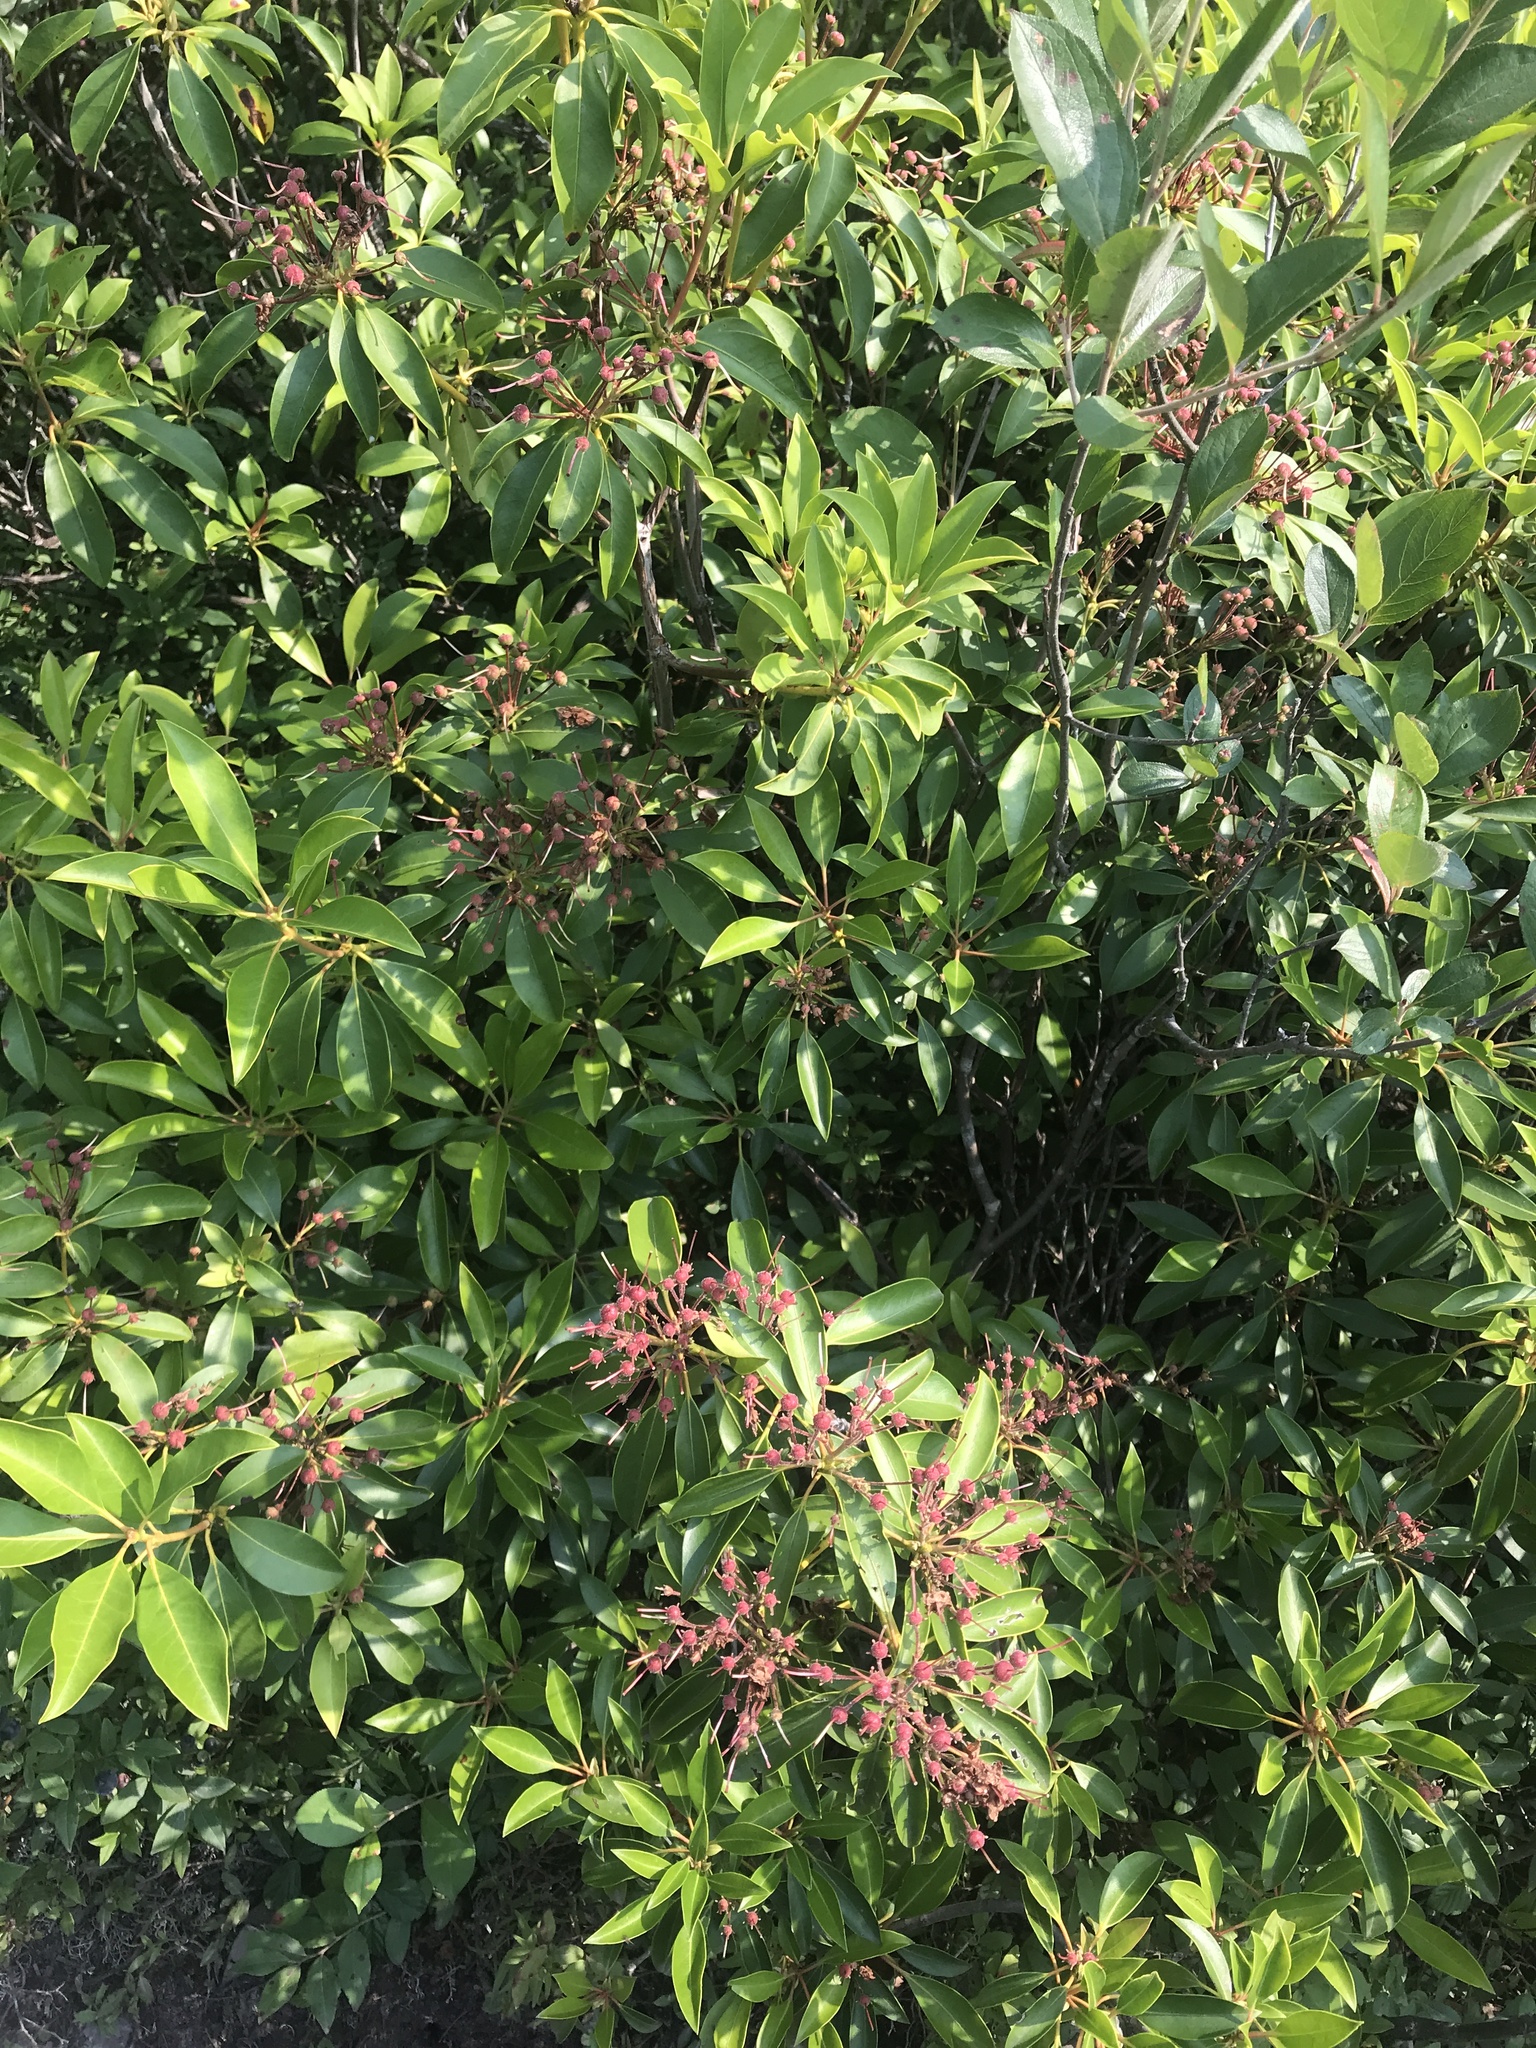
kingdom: Plantae
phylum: Tracheophyta
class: Magnoliopsida
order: Ericales
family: Ericaceae
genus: Kalmia
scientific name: Kalmia latifolia
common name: Mountain-laurel
